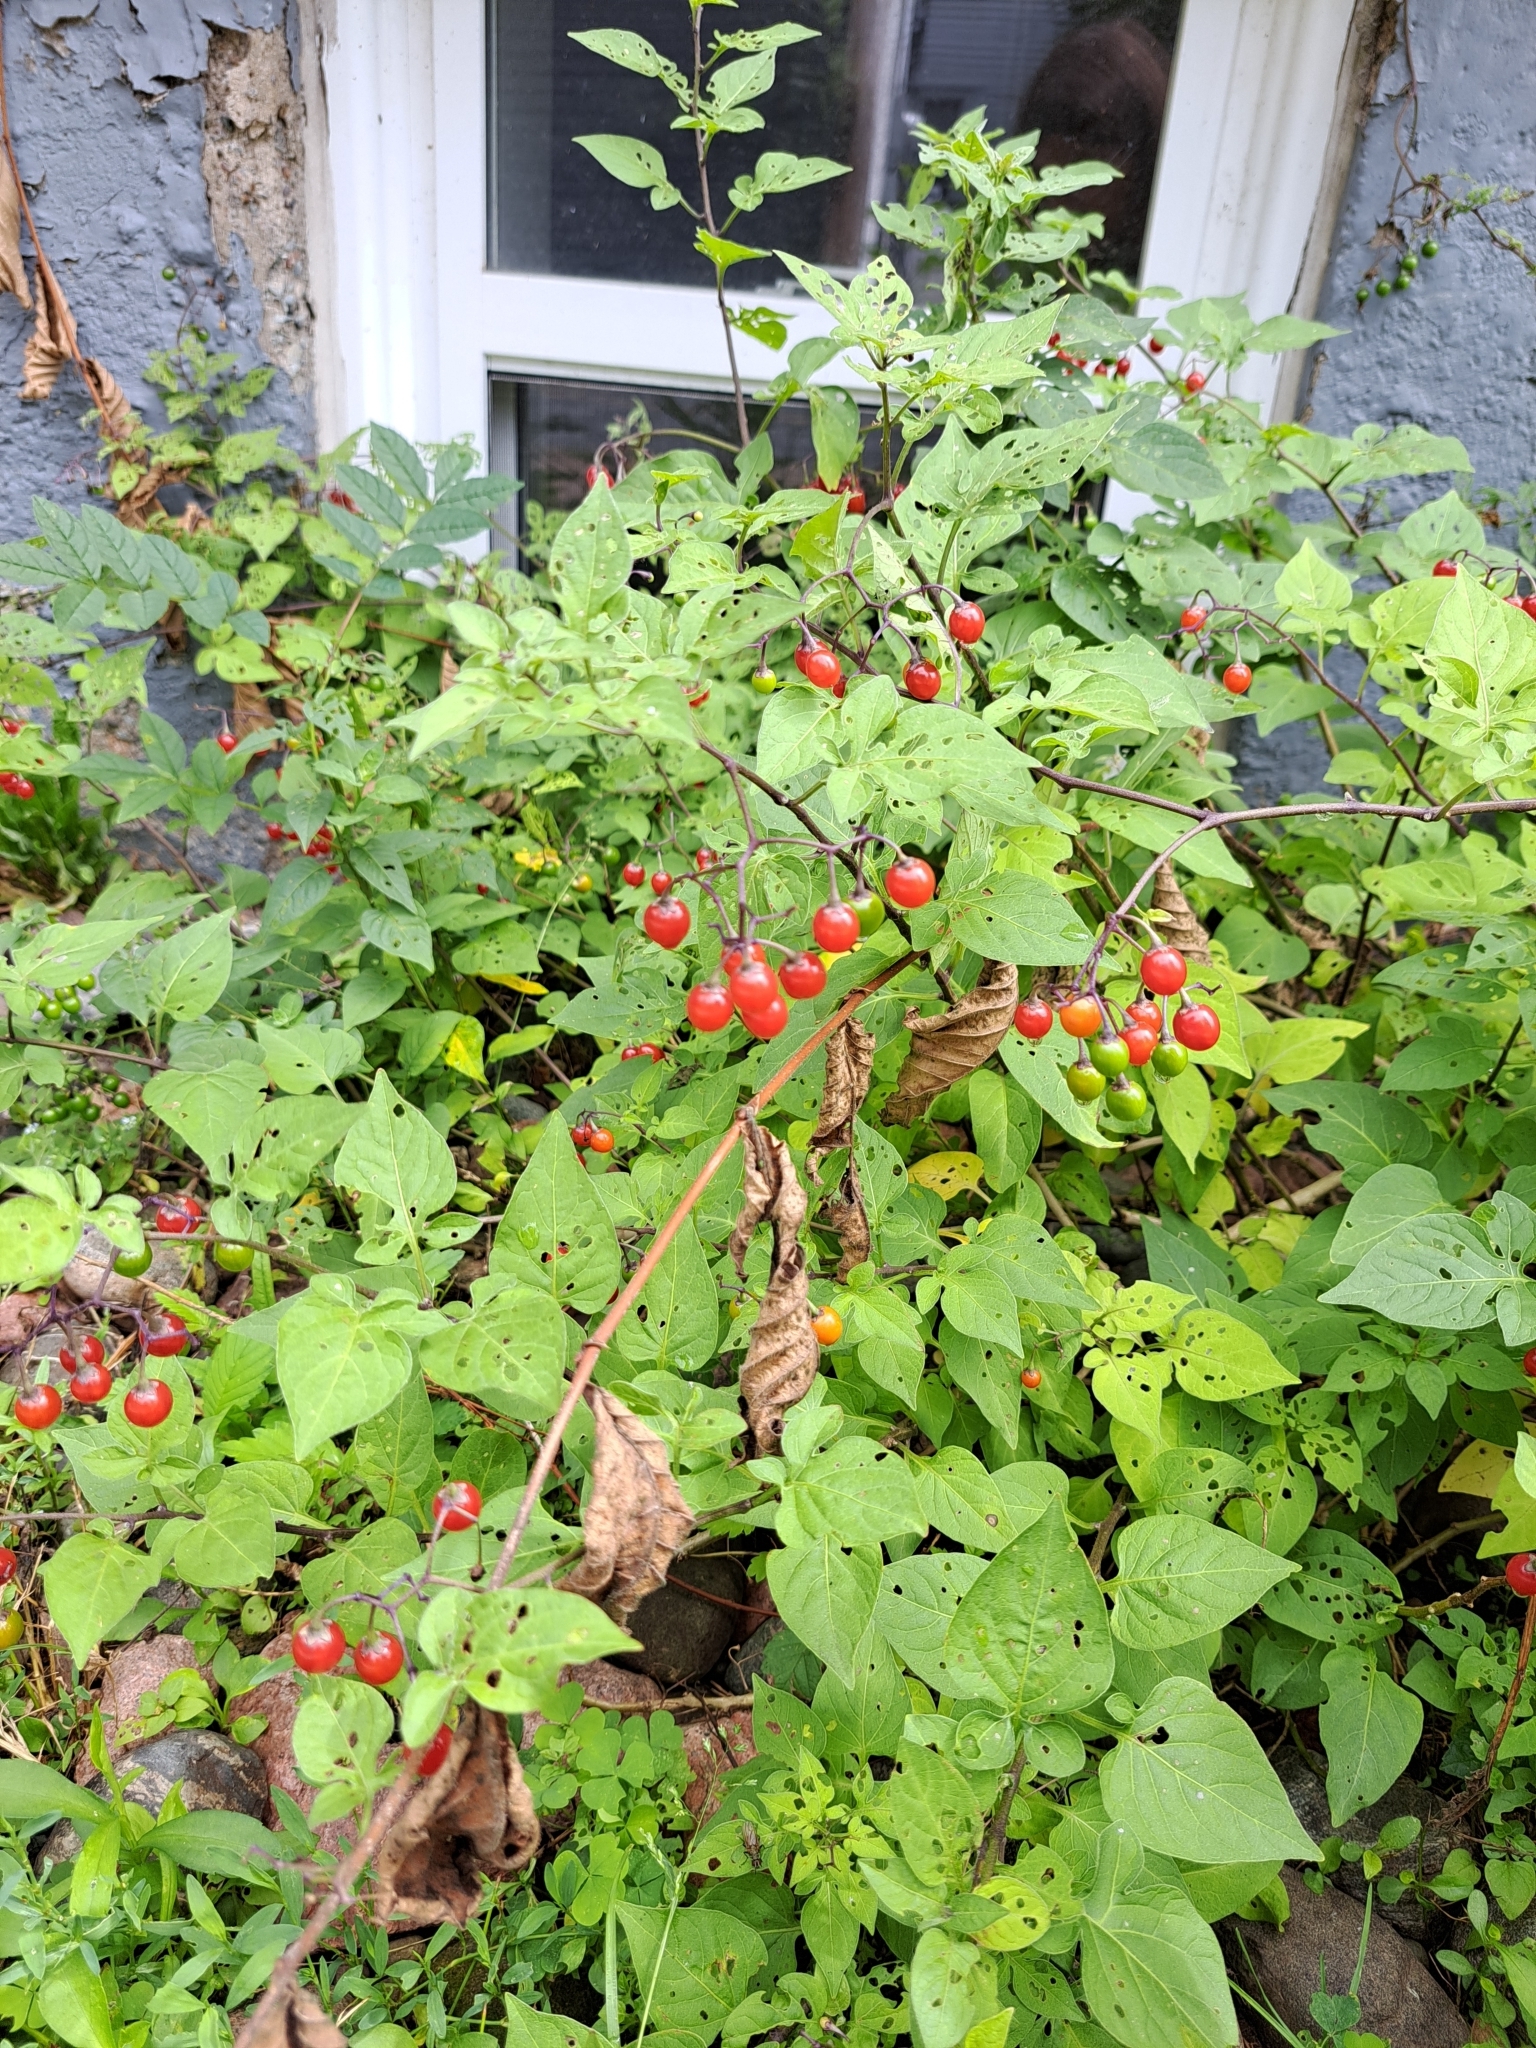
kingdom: Plantae
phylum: Tracheophyta
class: Magnoliopsida
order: Solanales
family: Solanaceae
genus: Solanum
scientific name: Solanum dulcamara
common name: Climbing nightshade
